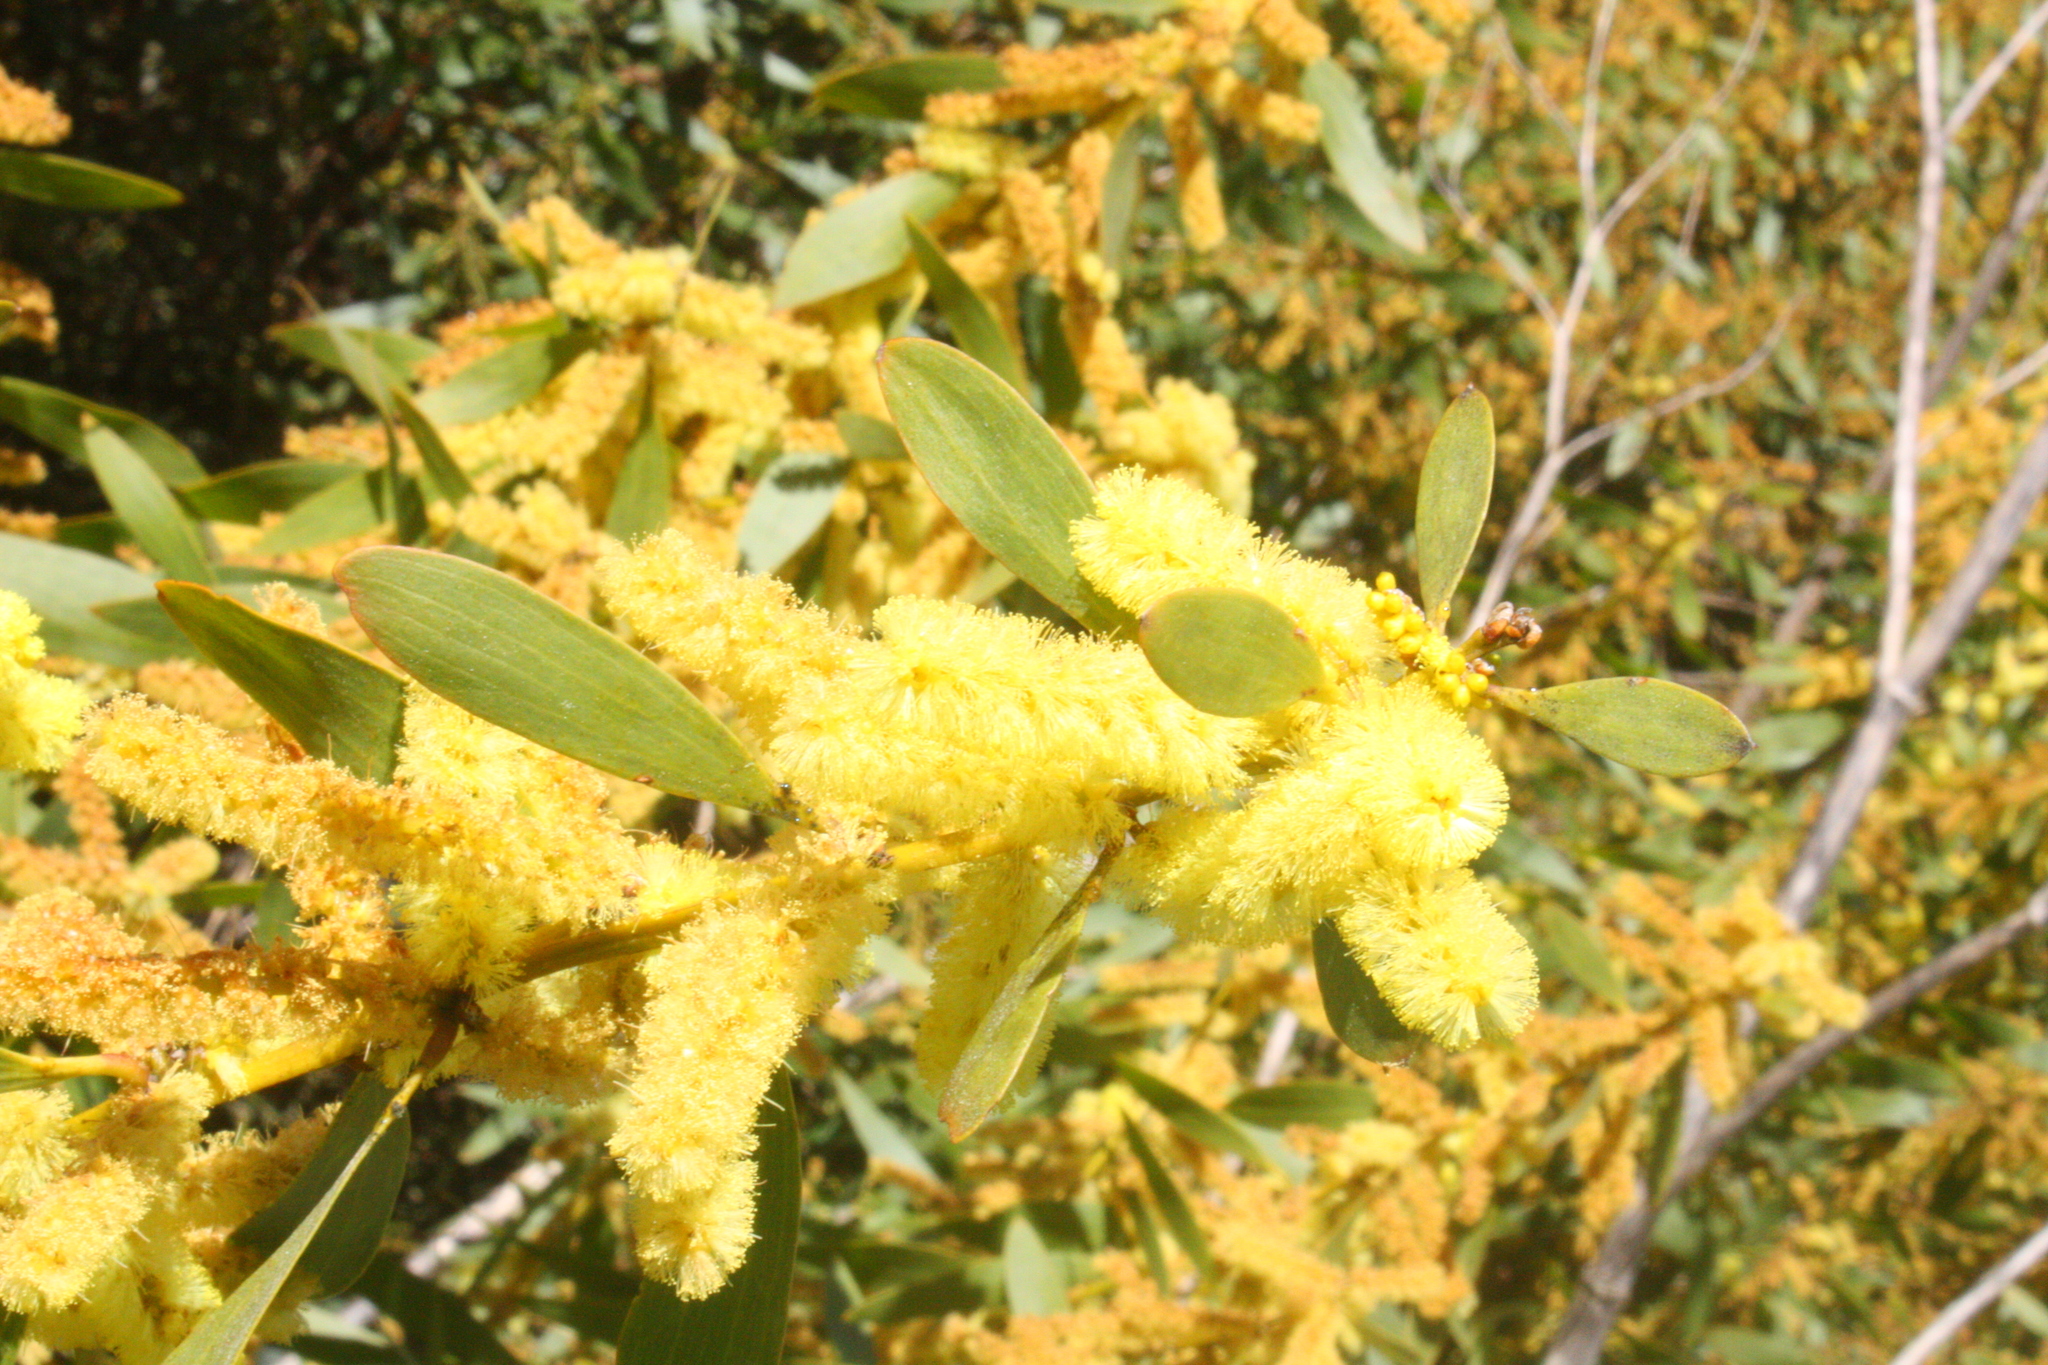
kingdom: Plantae
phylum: Tracheophyta
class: Magnoliopsida
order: Fabales
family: Fabaceae
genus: Acacia
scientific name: Acacia longifolia
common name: Sydney golden wattle
